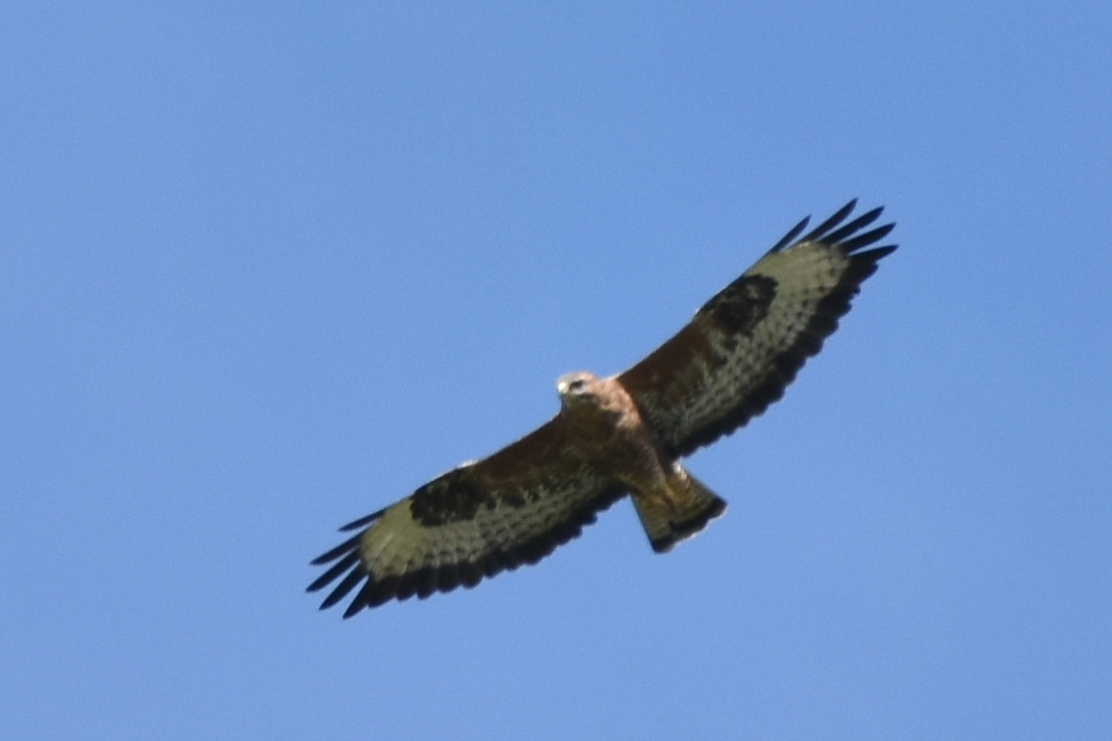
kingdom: Animalia
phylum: Chordata
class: Aves
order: Accipitriformes
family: Accipitridae
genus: Buteo
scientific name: Buteo buteo
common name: Common buzzard
